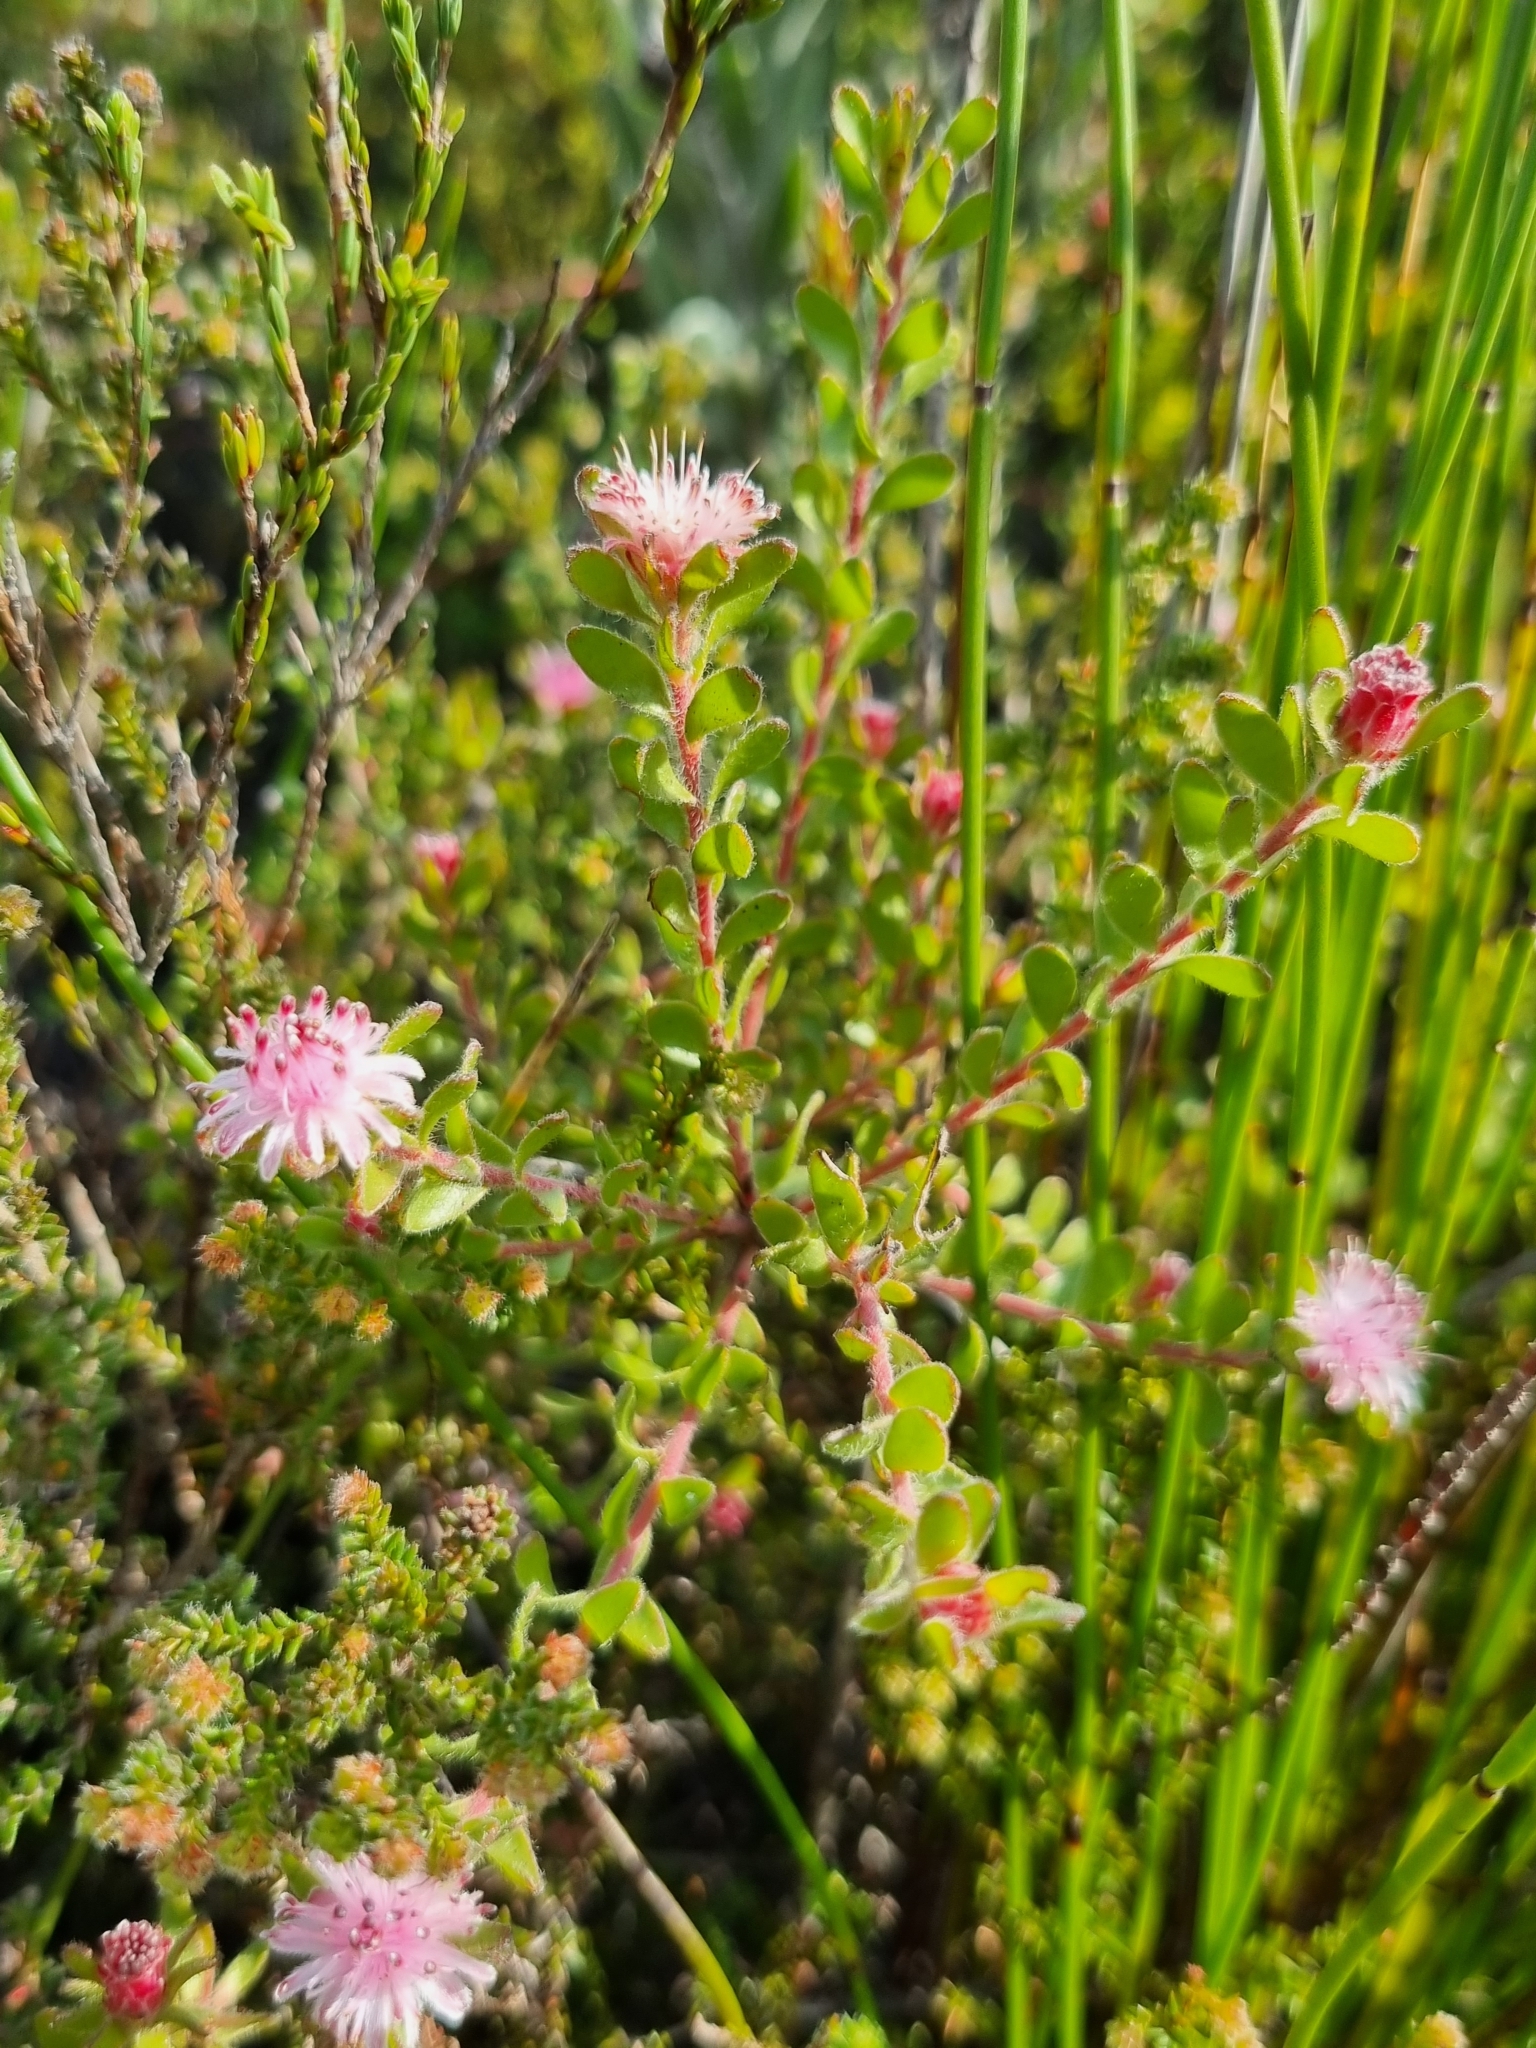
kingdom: Plantae
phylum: Tracheophyta
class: Magnoliopsida
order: Proteales
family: Proteaceae
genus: Diastella
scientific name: Diastella divaricata
